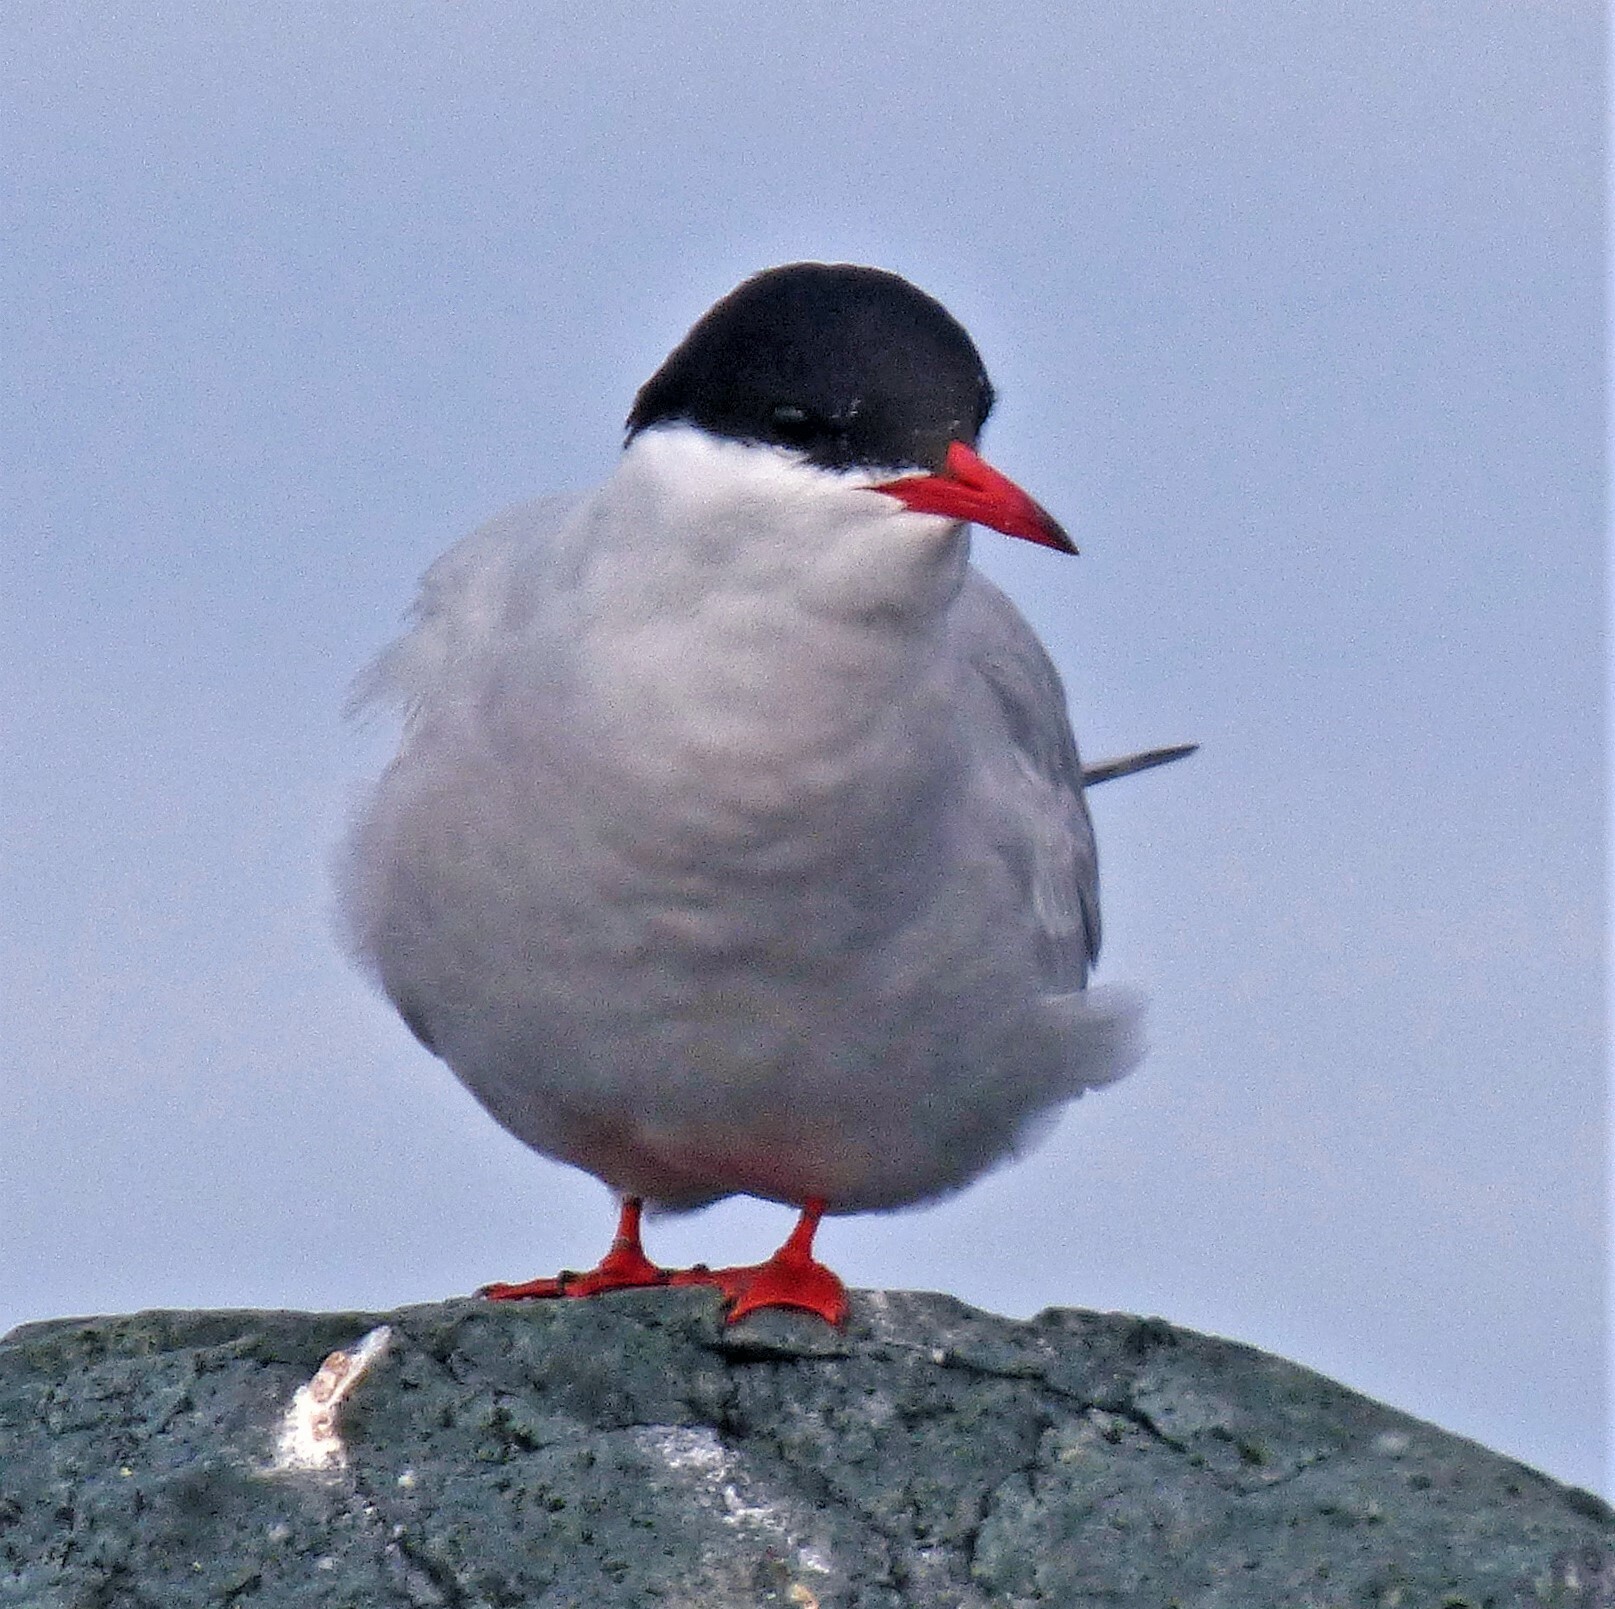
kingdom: Animalia
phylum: Chordata
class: Aves
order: Charadriiformes
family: Laridae
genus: Sterna
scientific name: Sterna vittata
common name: Antarctic tern
